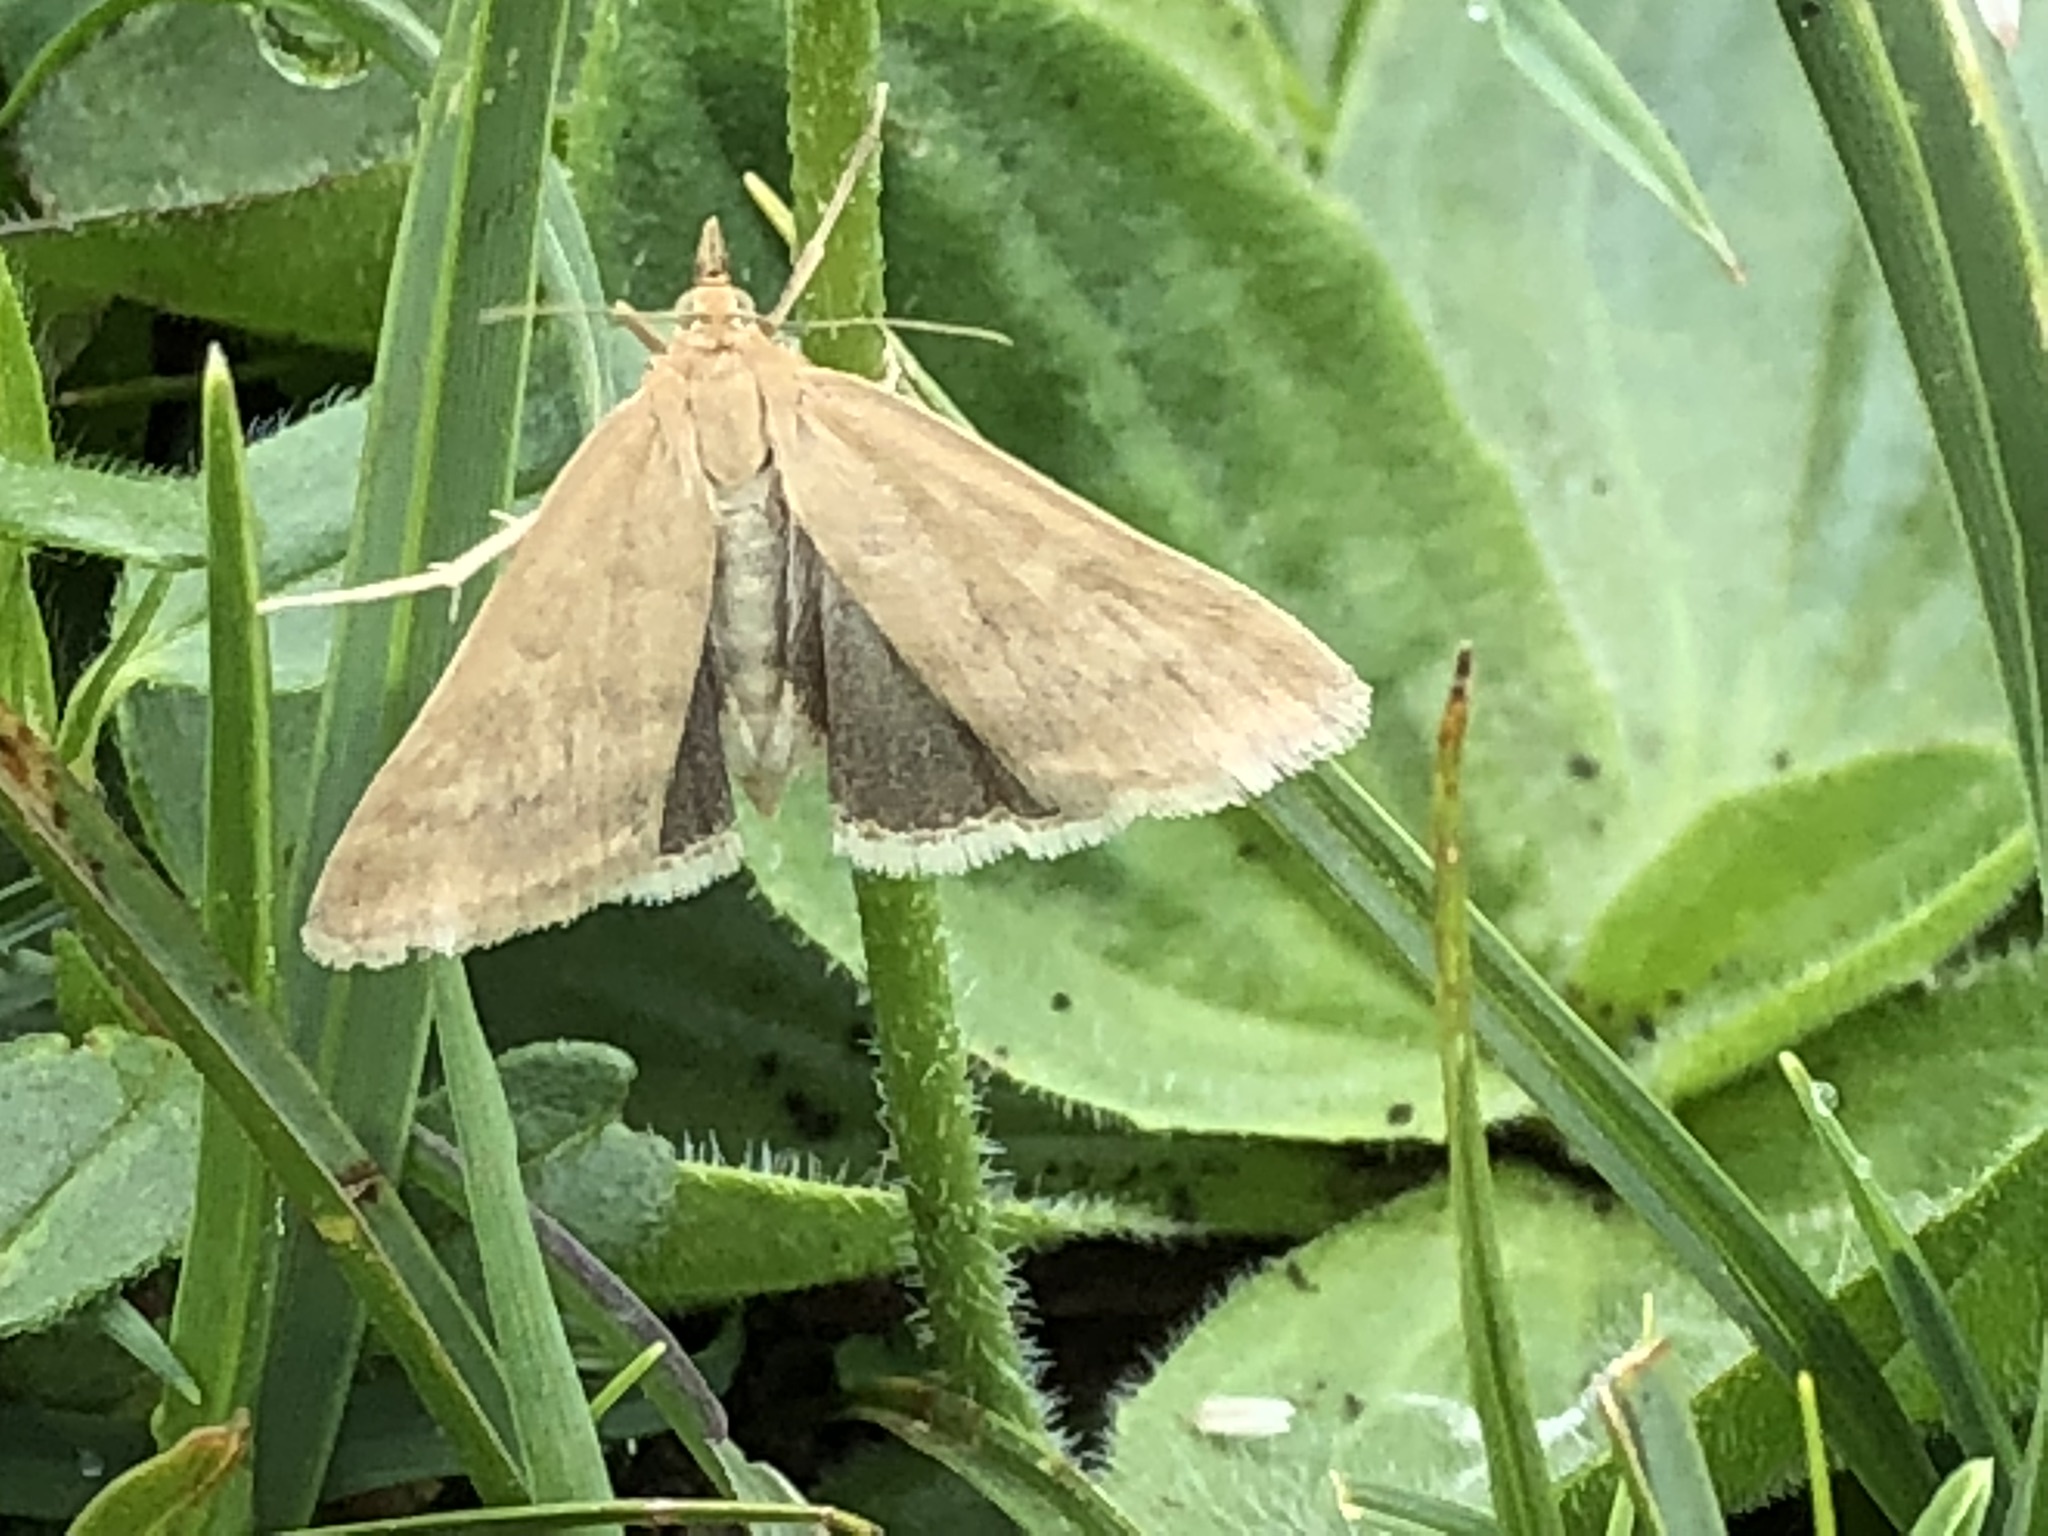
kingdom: Animalia
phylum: Arthropoda
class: Insecta
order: Lepidoptera
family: Crambidae
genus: Udea
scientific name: Udea nebulalis
